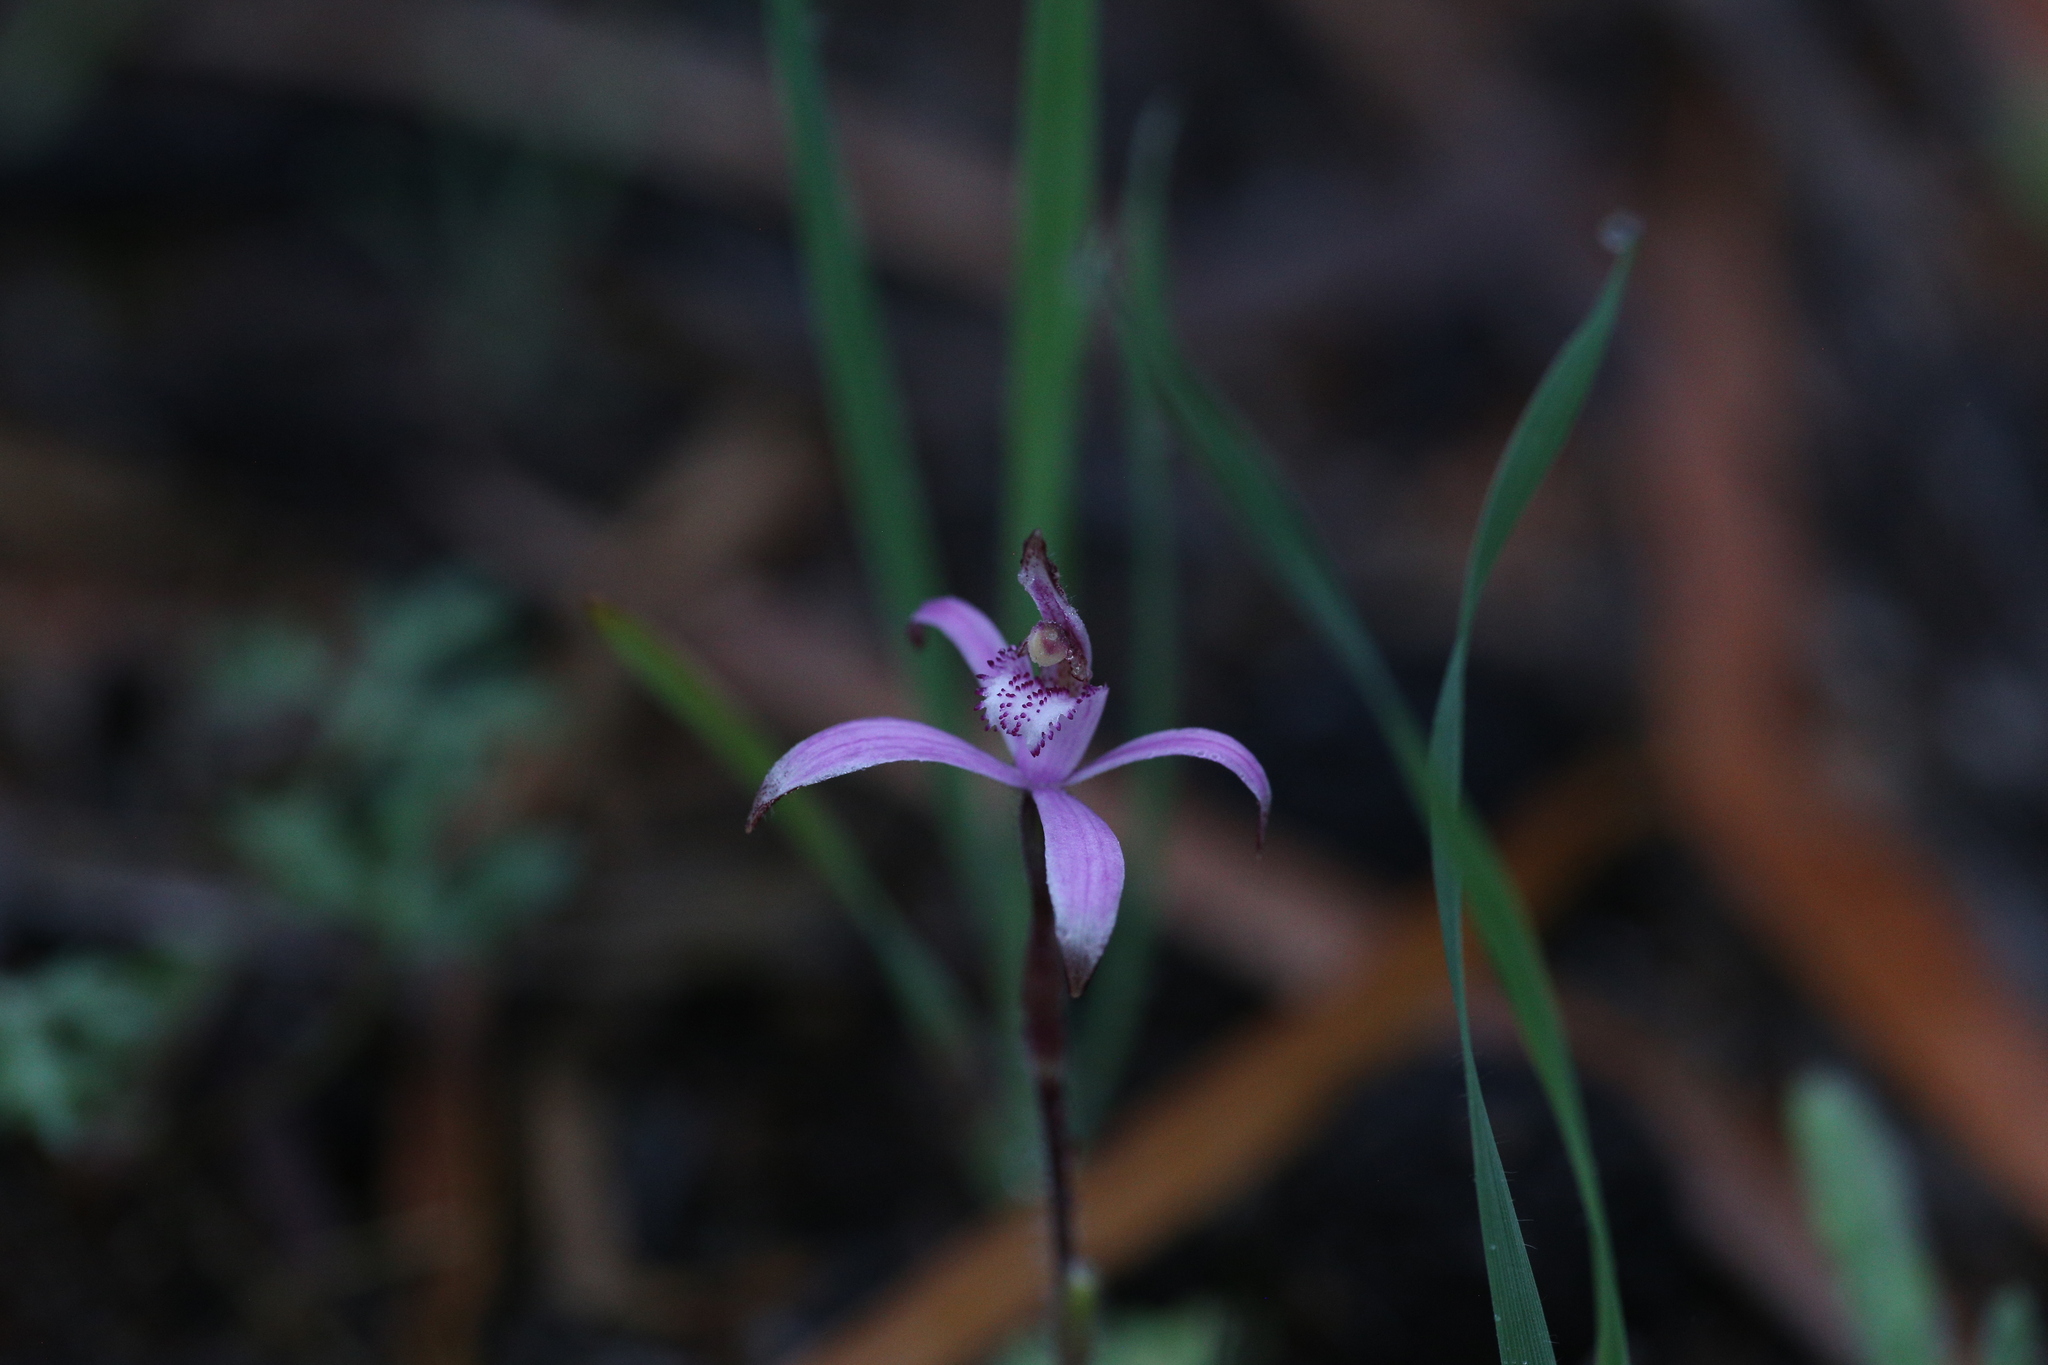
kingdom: Plantae
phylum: Tracheophyta
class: Liliopsida
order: Asparagales
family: Orchidaceae
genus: Caladenia
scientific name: Caladenia hirta
